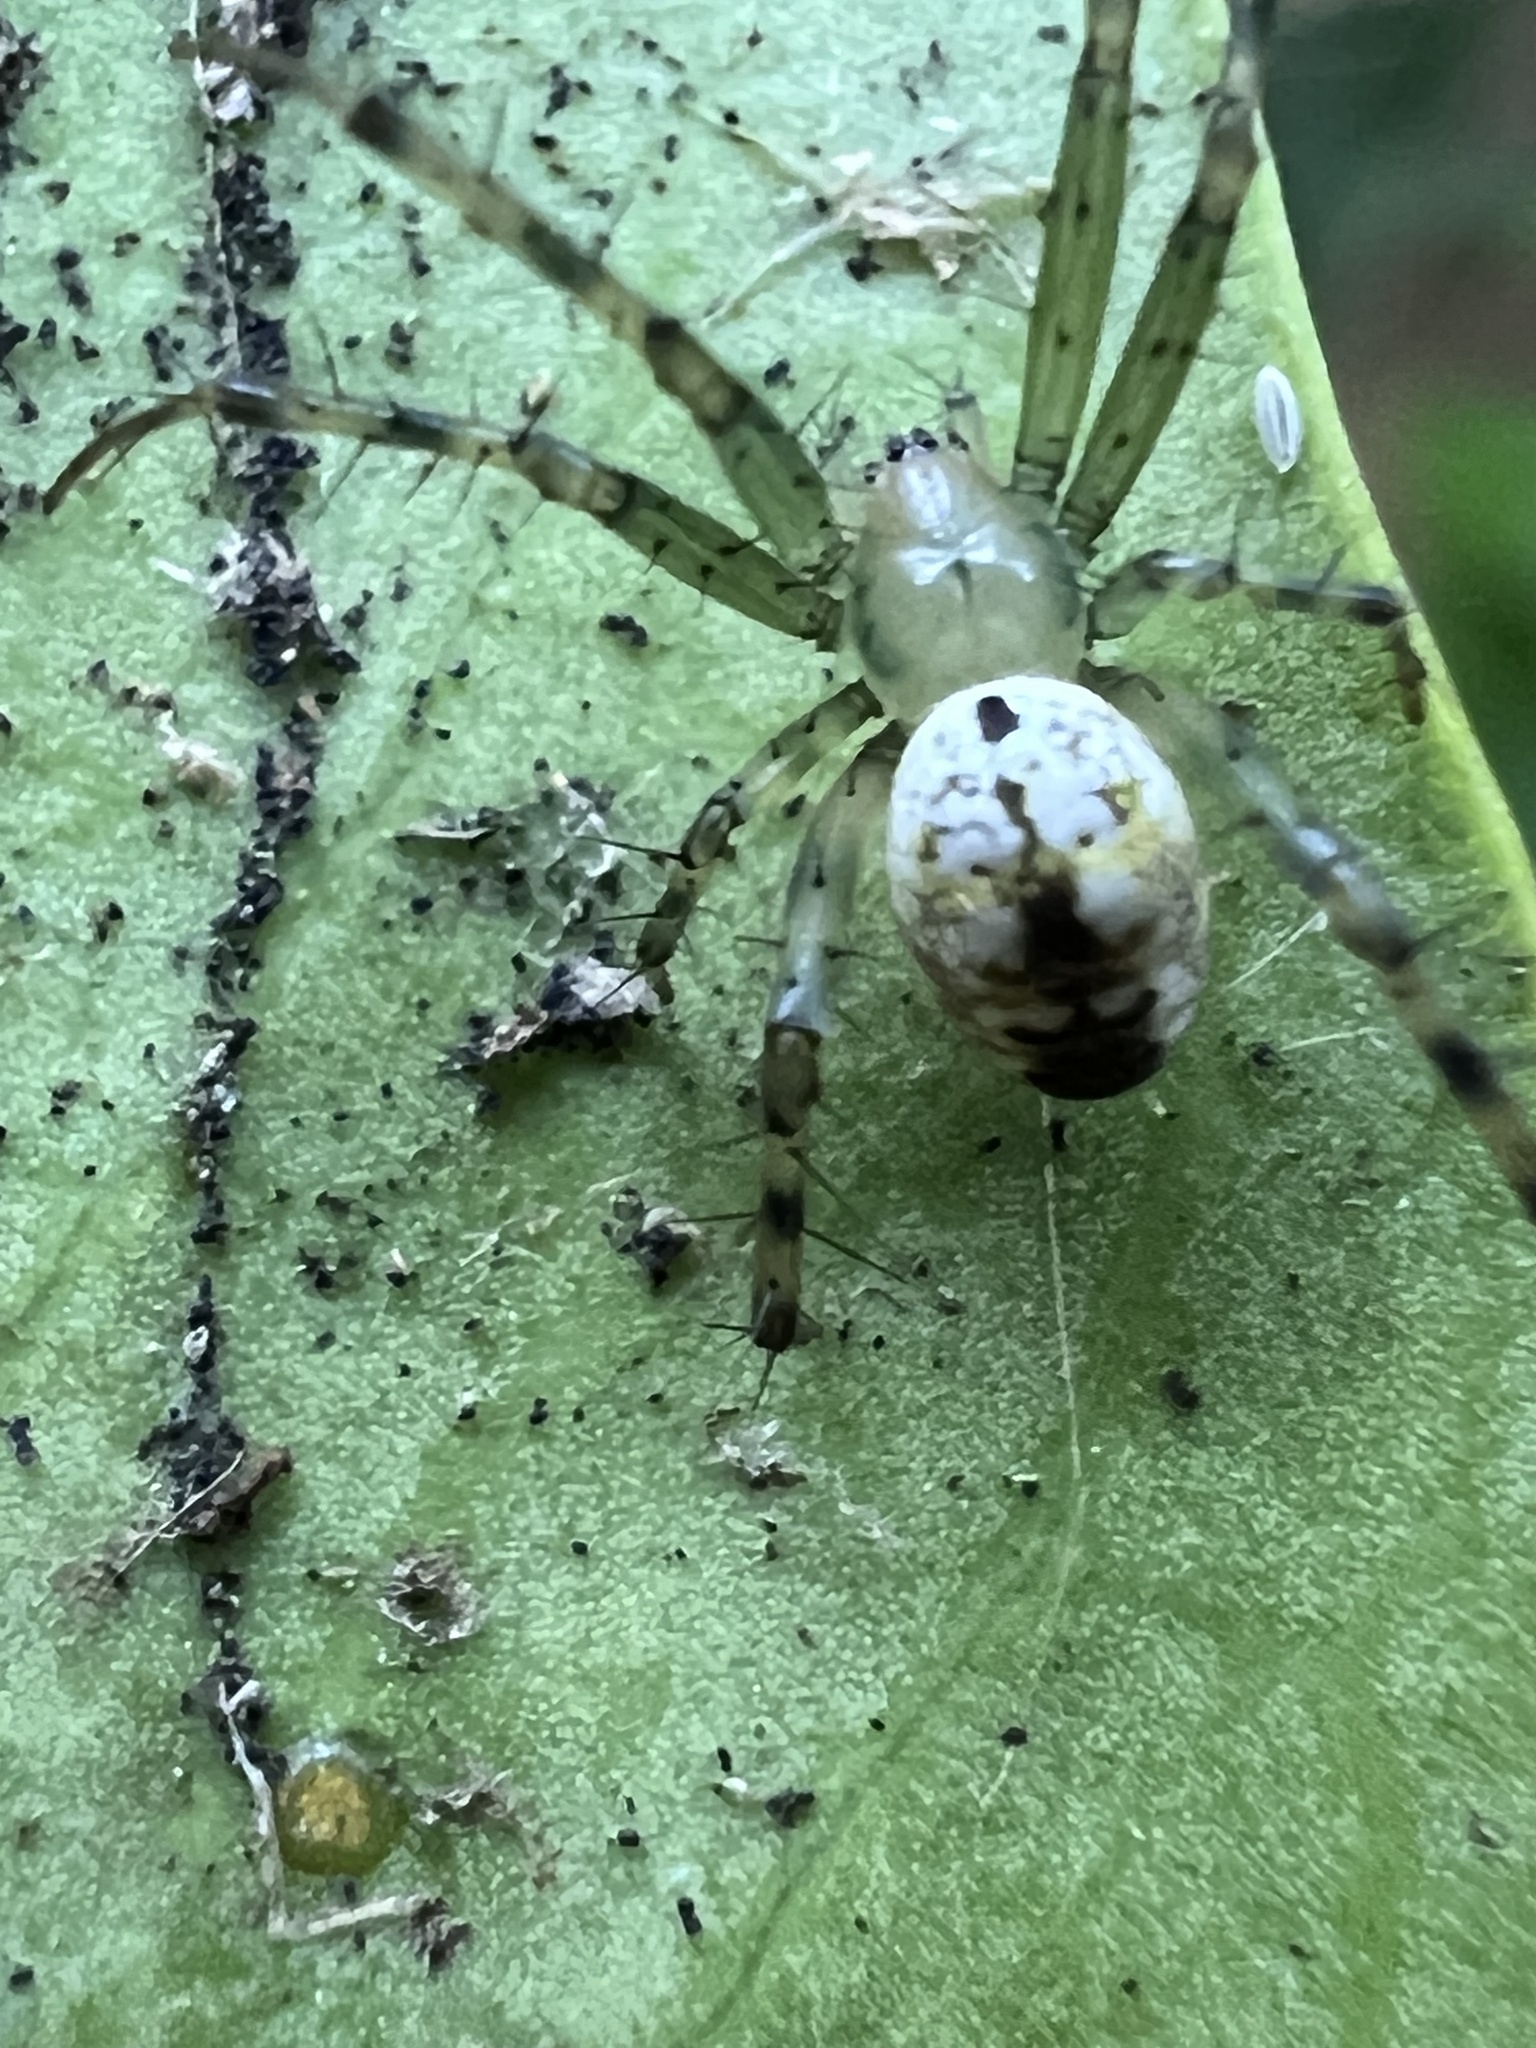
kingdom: Animalia
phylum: Arthropoda
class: Arachnida
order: Araneae
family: Araneidae
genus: Mangora
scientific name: Mangora spiculata
